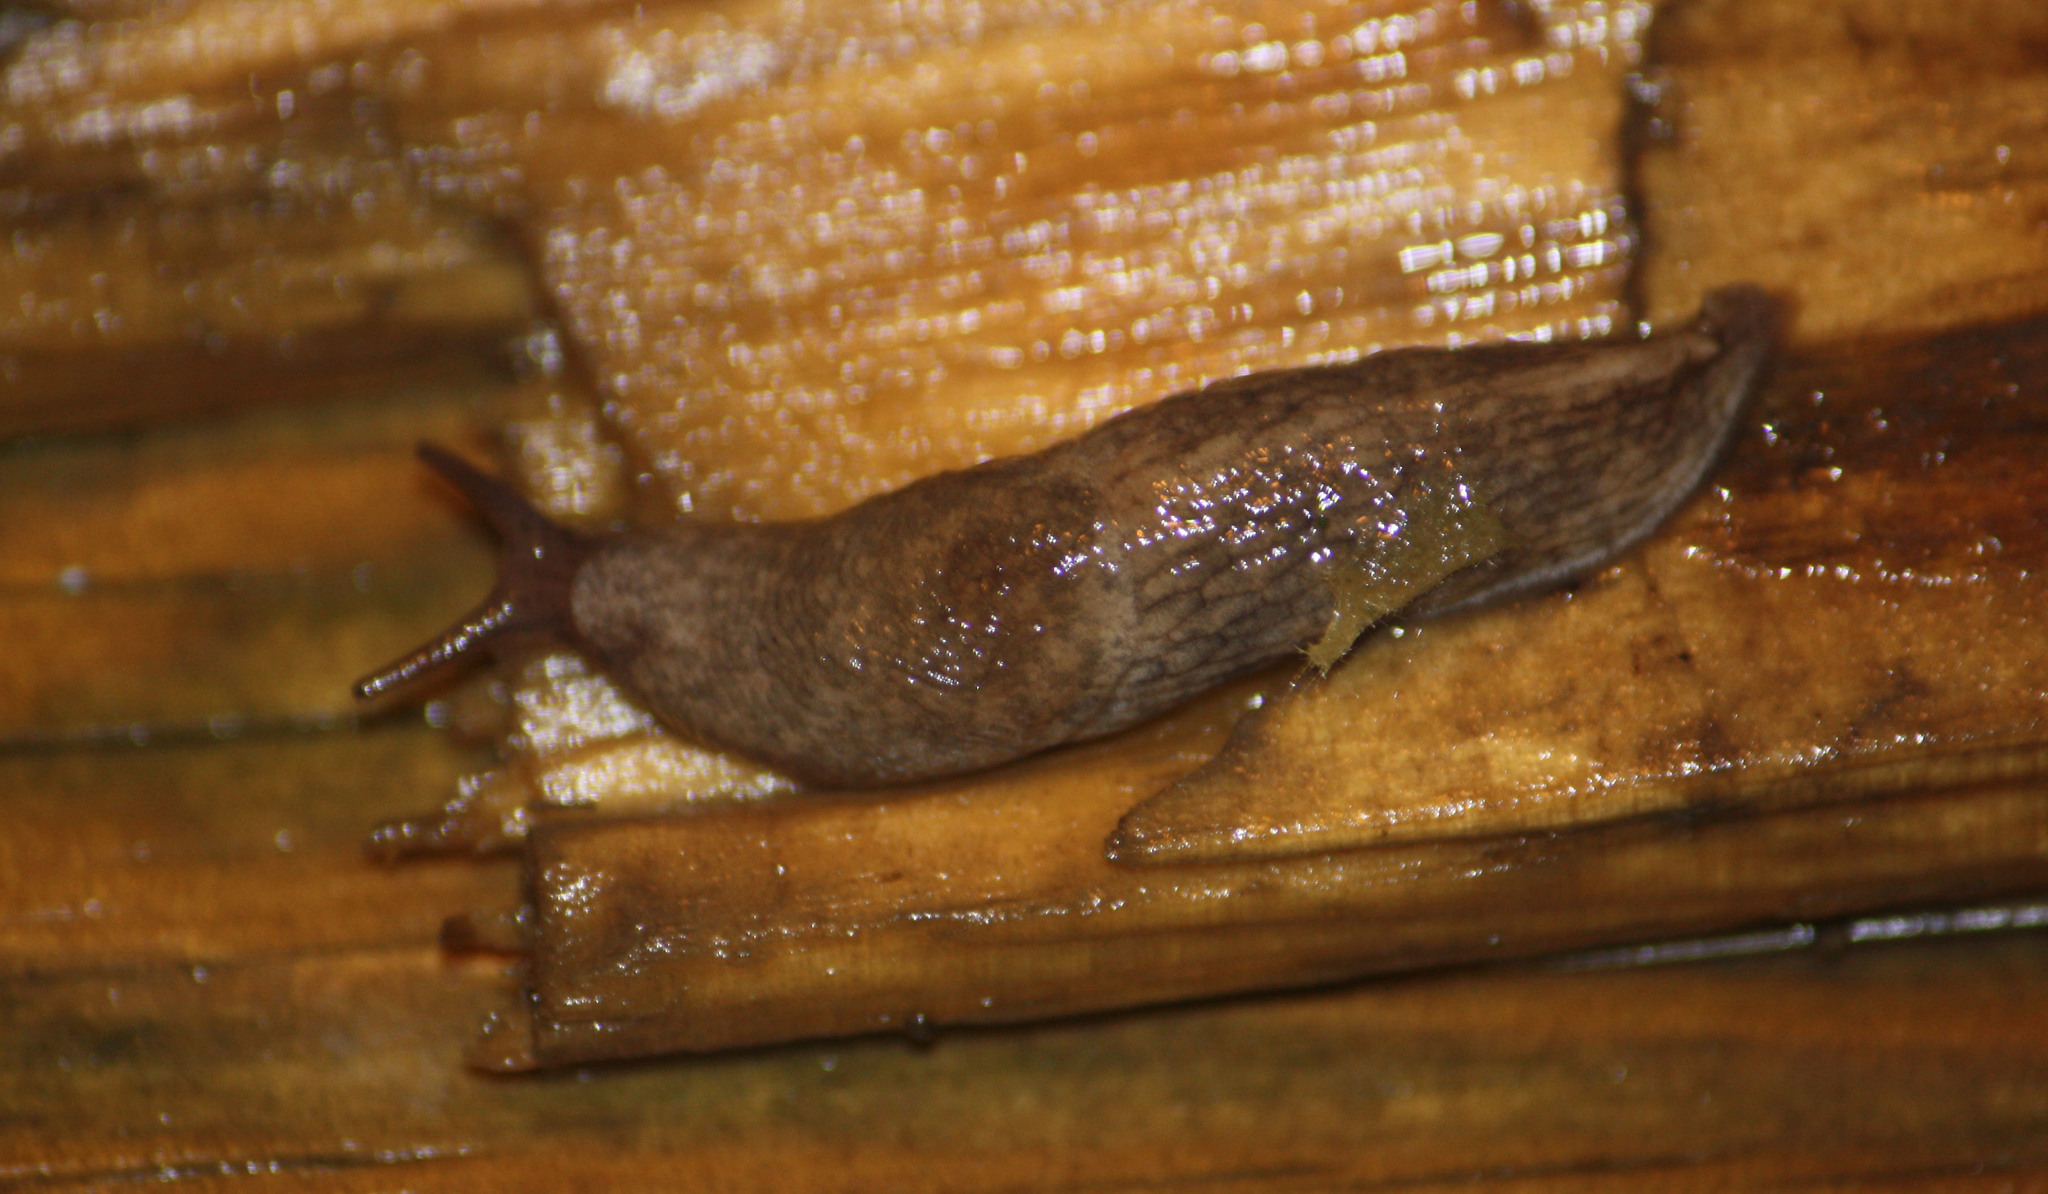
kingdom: Animalia
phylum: Mollusca
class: Gastropoda
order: Stylommatophora
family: Agriolimacidae
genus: Deroceras
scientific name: Deroceras reticulatum
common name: Gray field slug
